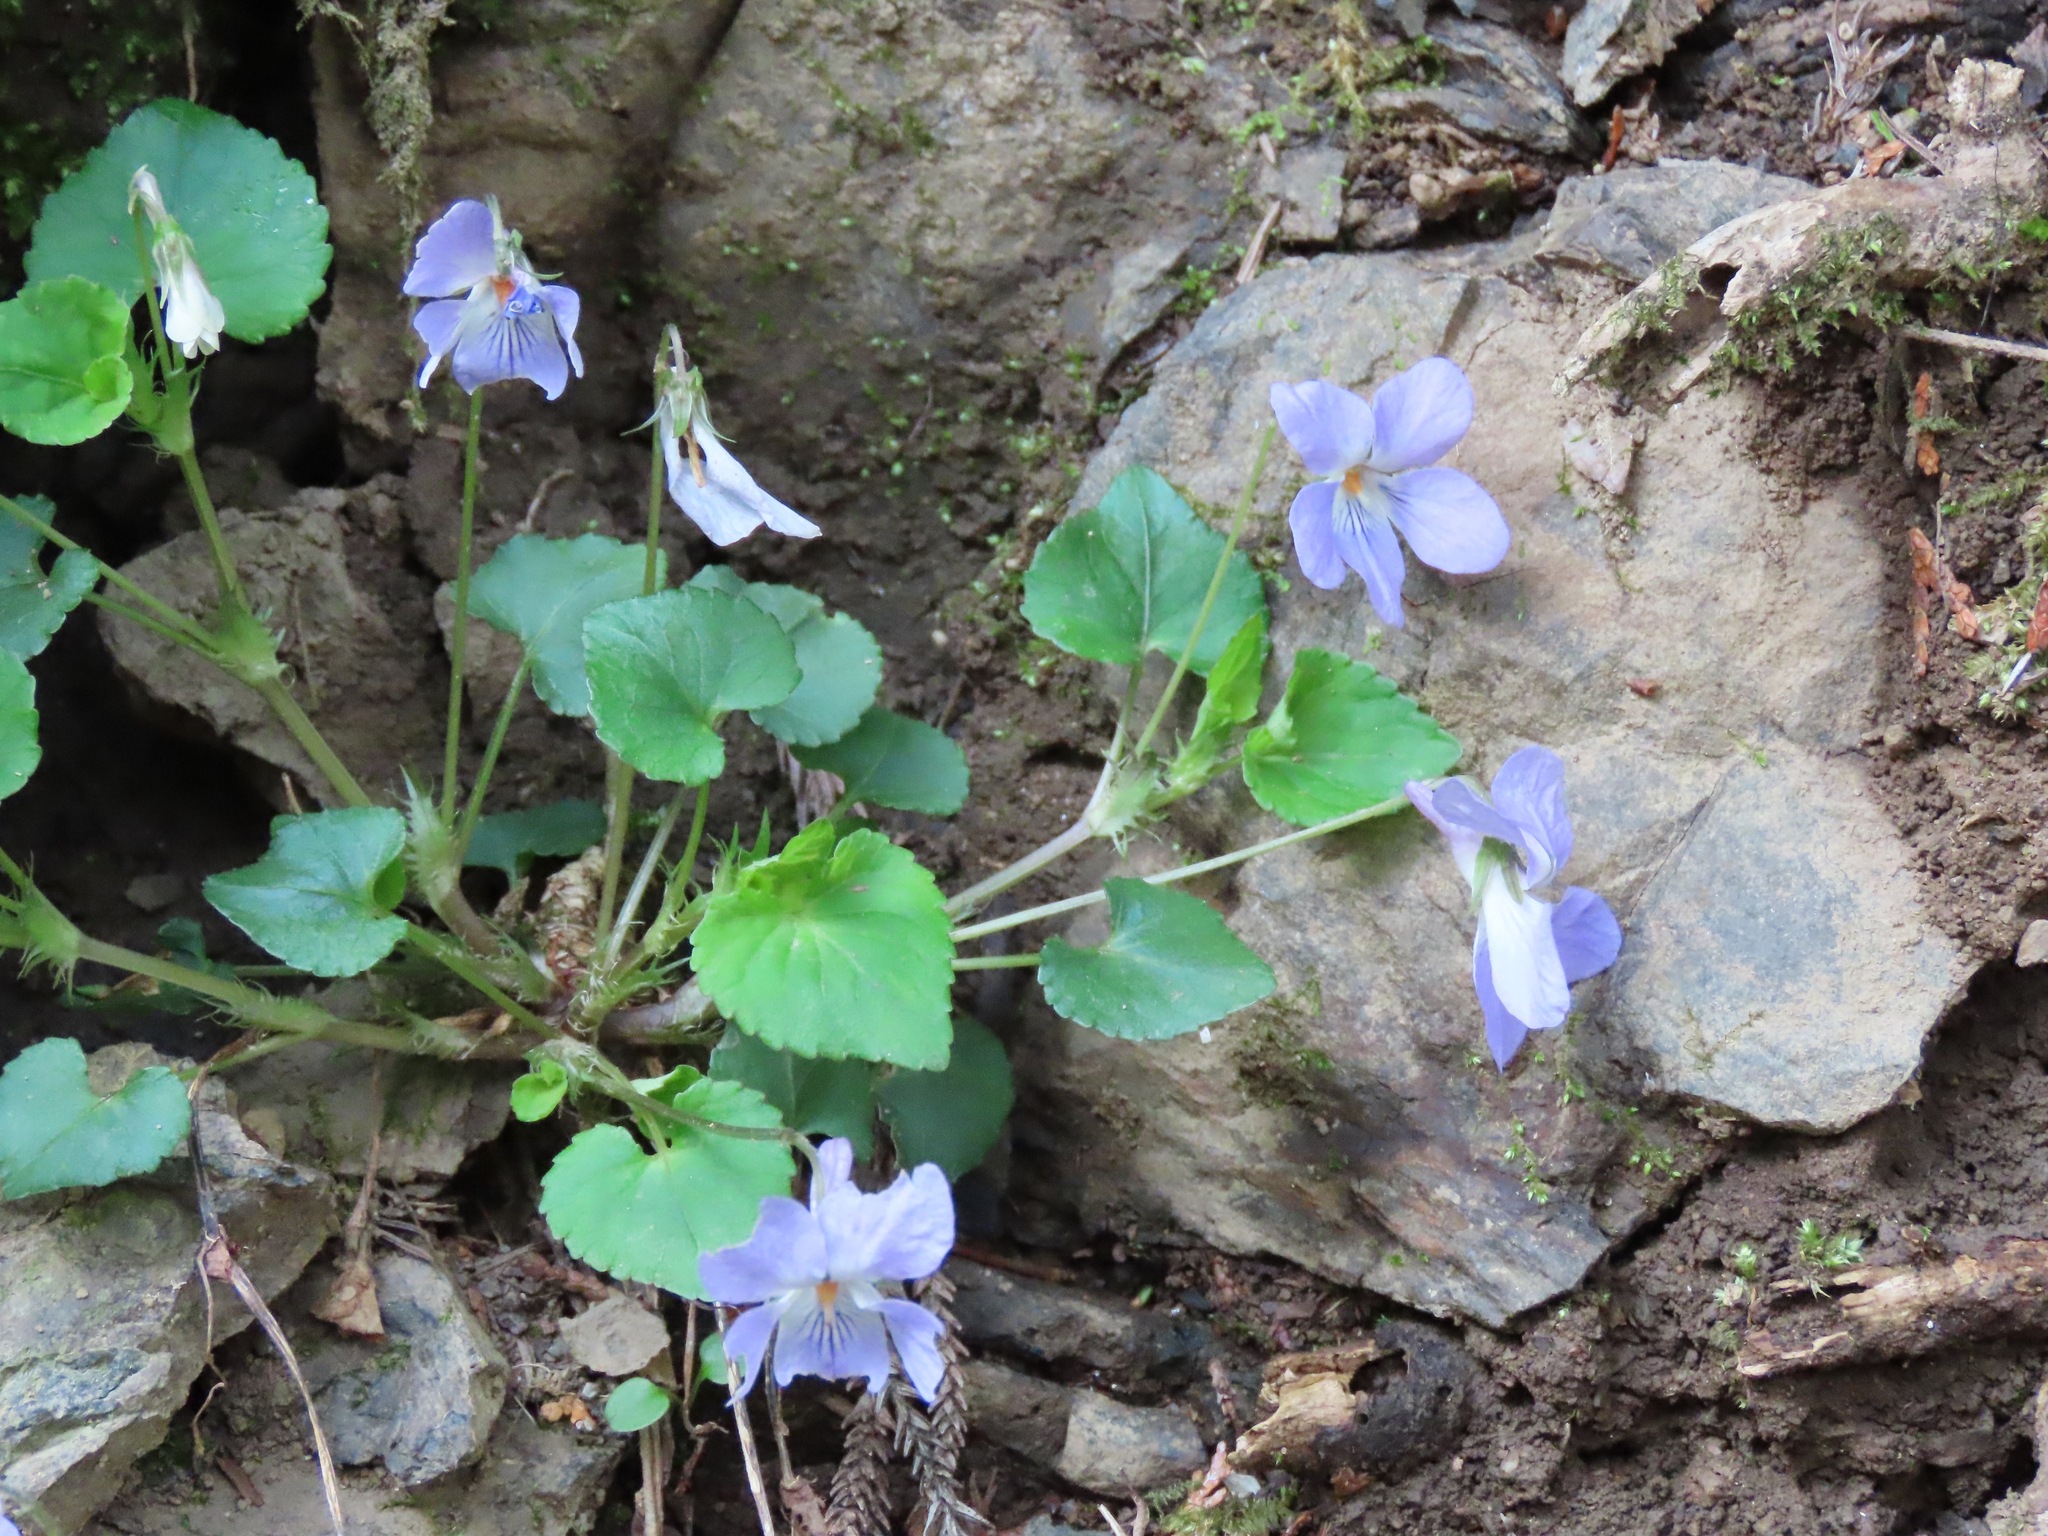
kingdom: Plantae
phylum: Tracheophyta
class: Magnoliopsida
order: Malpighiales
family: Violaceae
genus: Viola
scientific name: Viola grypoceras
